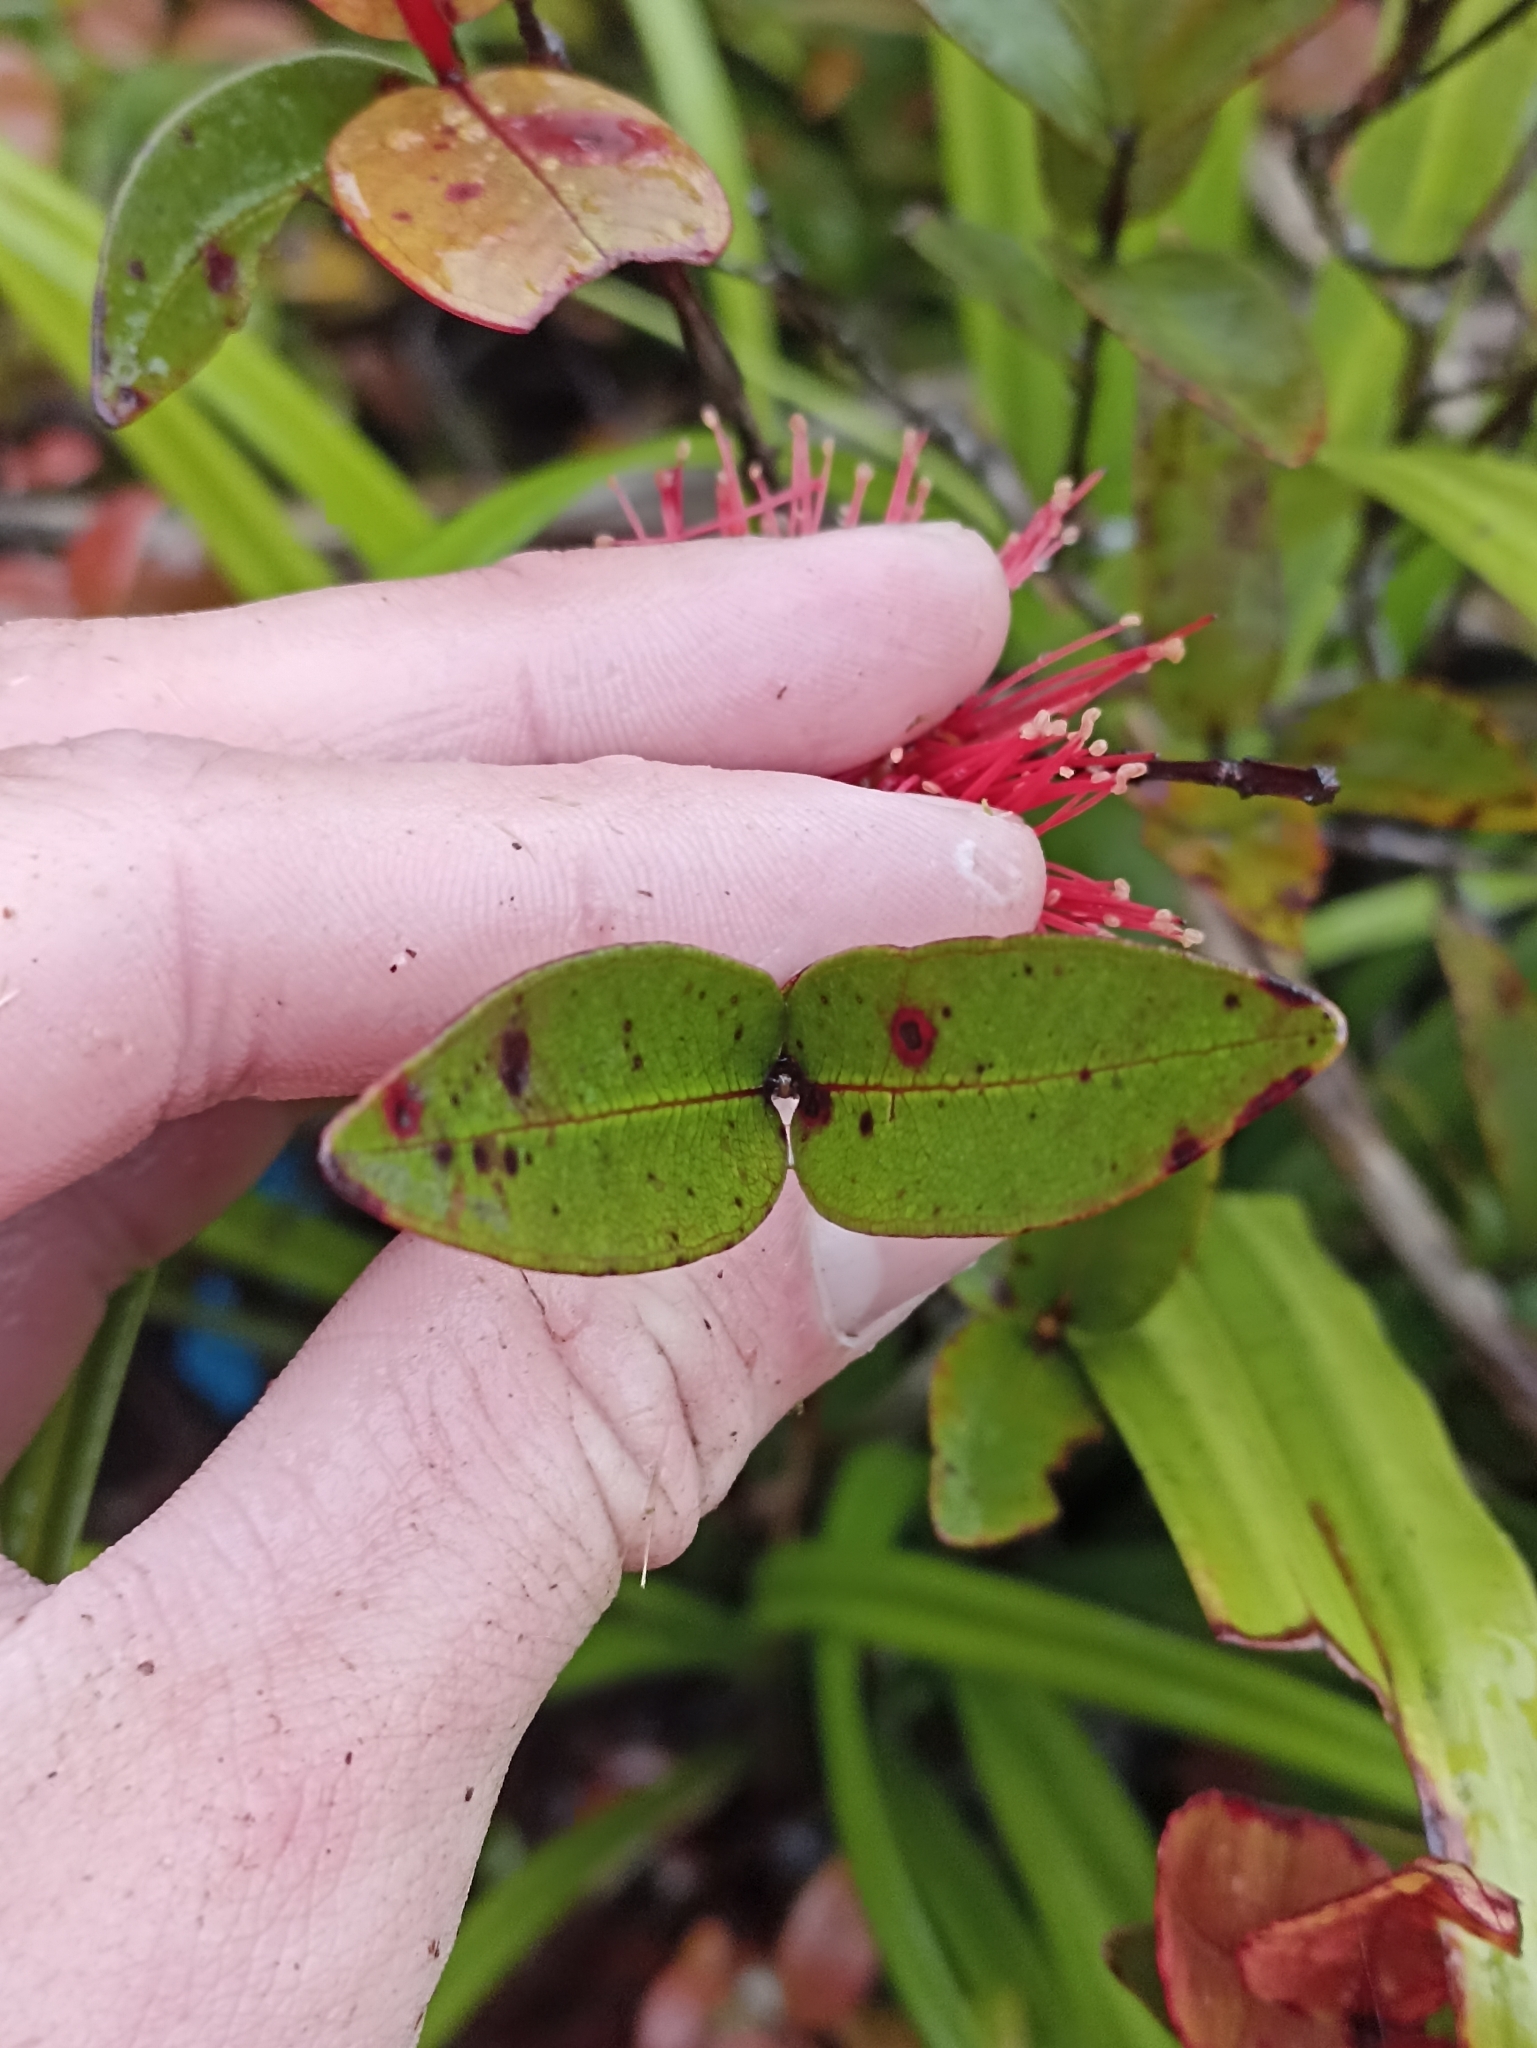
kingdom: Plantae
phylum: Tracheophyta
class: Magnoliopsida
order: Myrtales
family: Myrtaceae
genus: Metrosideros
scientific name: Metrosideros parkinsonii
